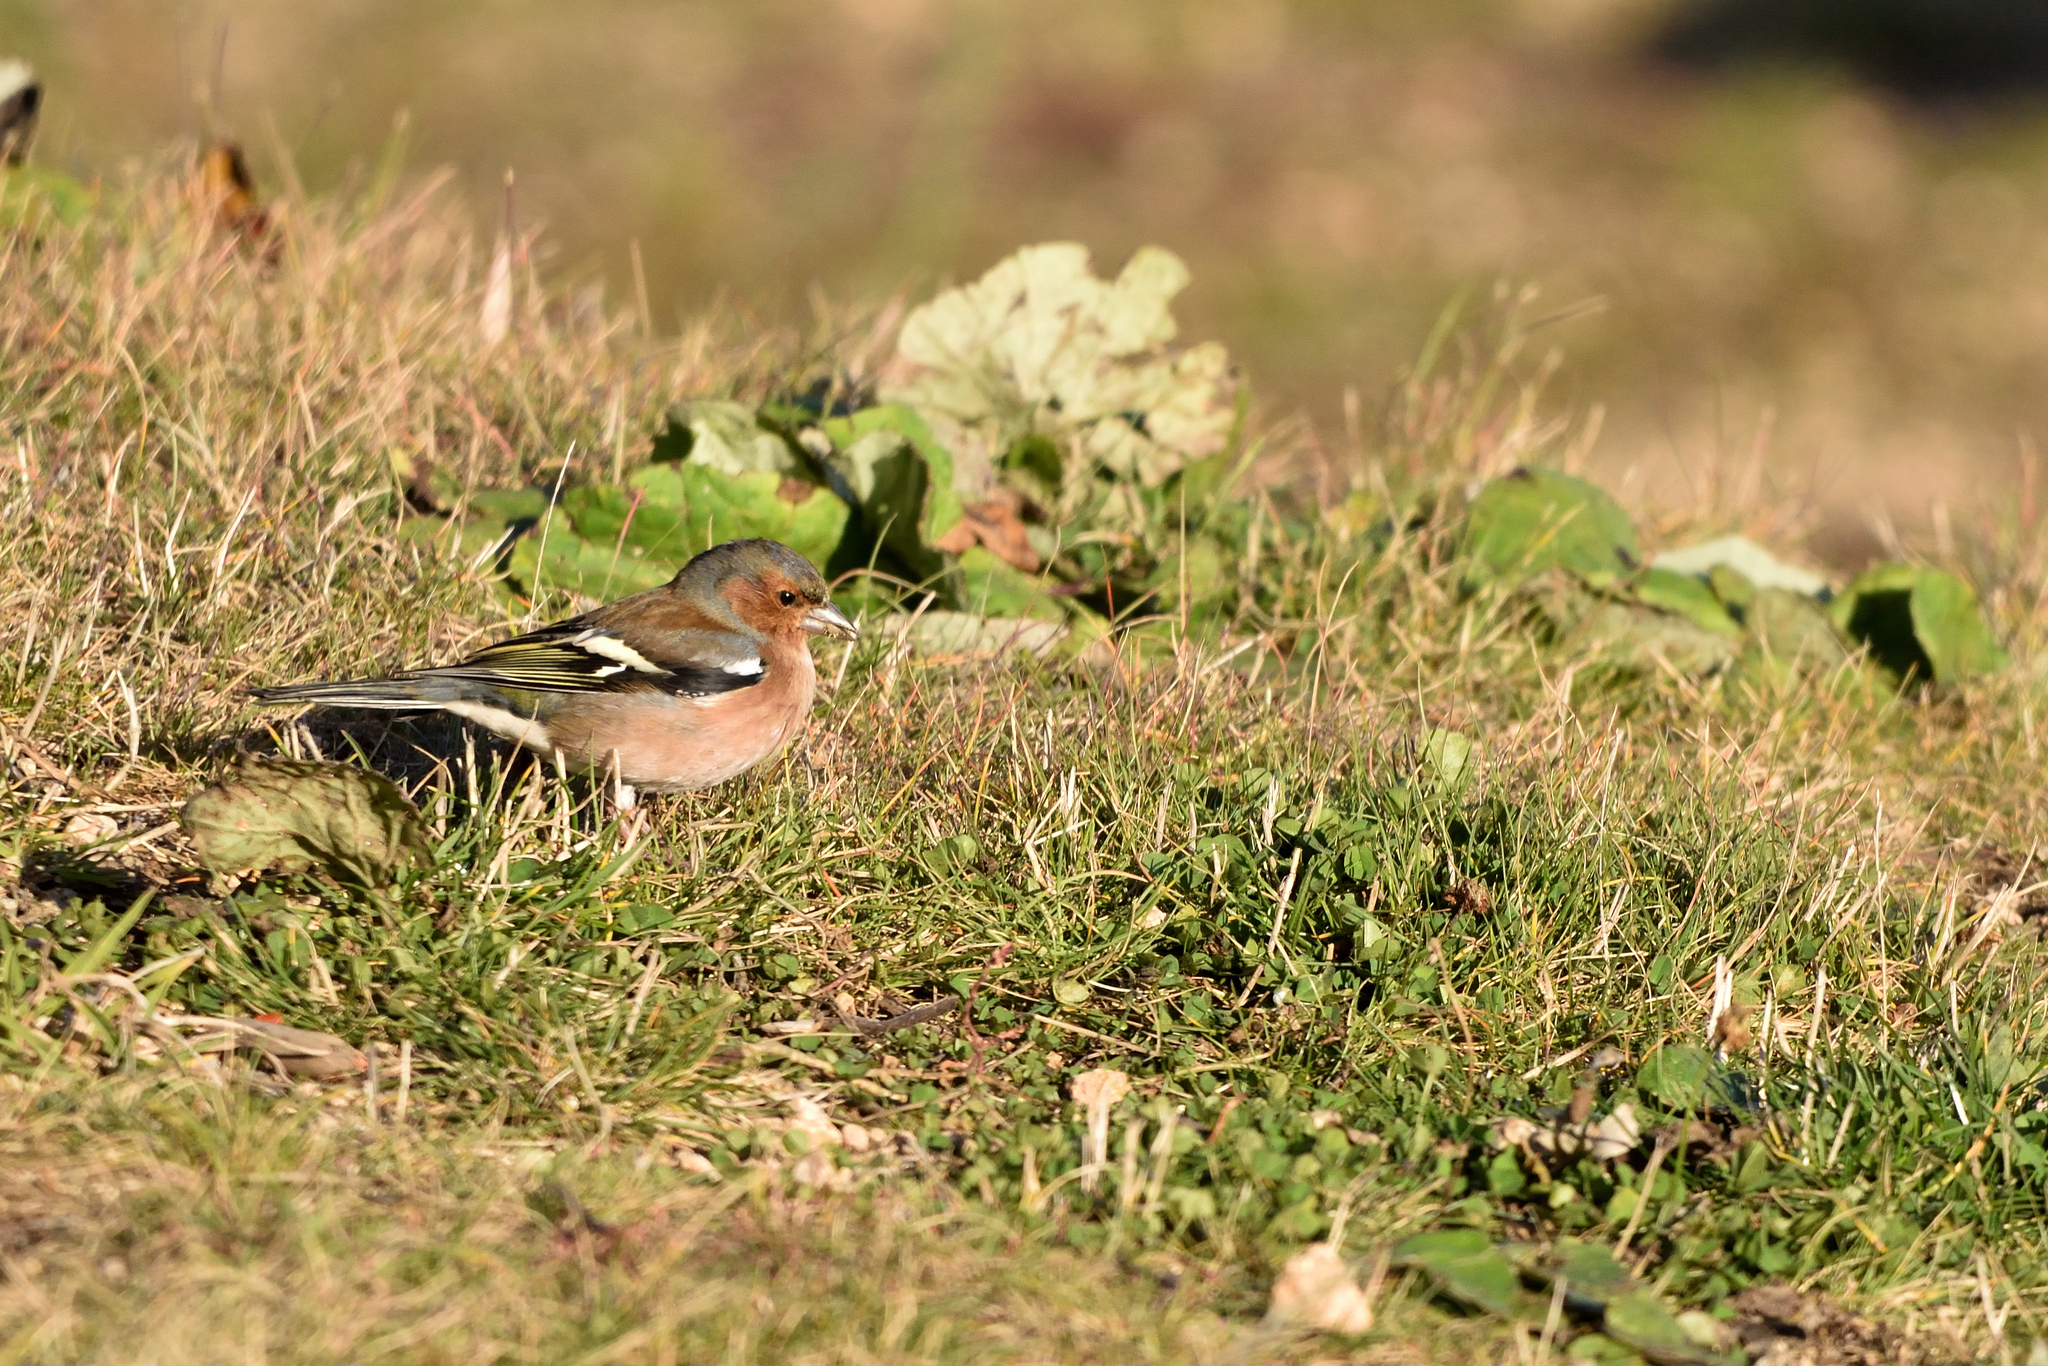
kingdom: Animalia
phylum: Chordata
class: Aves
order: Passeriformes
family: Fringillidae
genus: Fringilla
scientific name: Fringilla coelebs
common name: Common chaffinch
